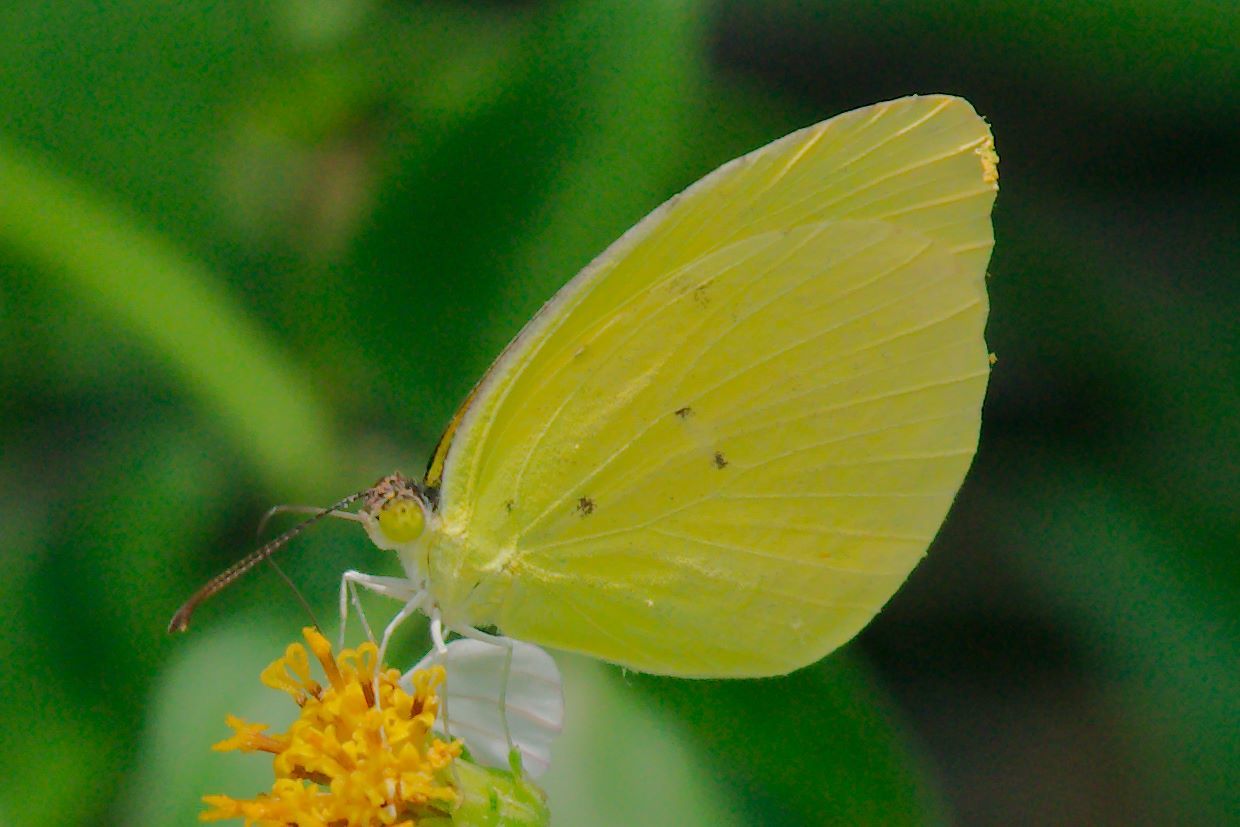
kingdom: Animalia
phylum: Arthropoda
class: Insecta
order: Lepidoptera
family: Pieridae
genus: Pyrisitia
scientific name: Pyrisitia dina
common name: Dina yellow
